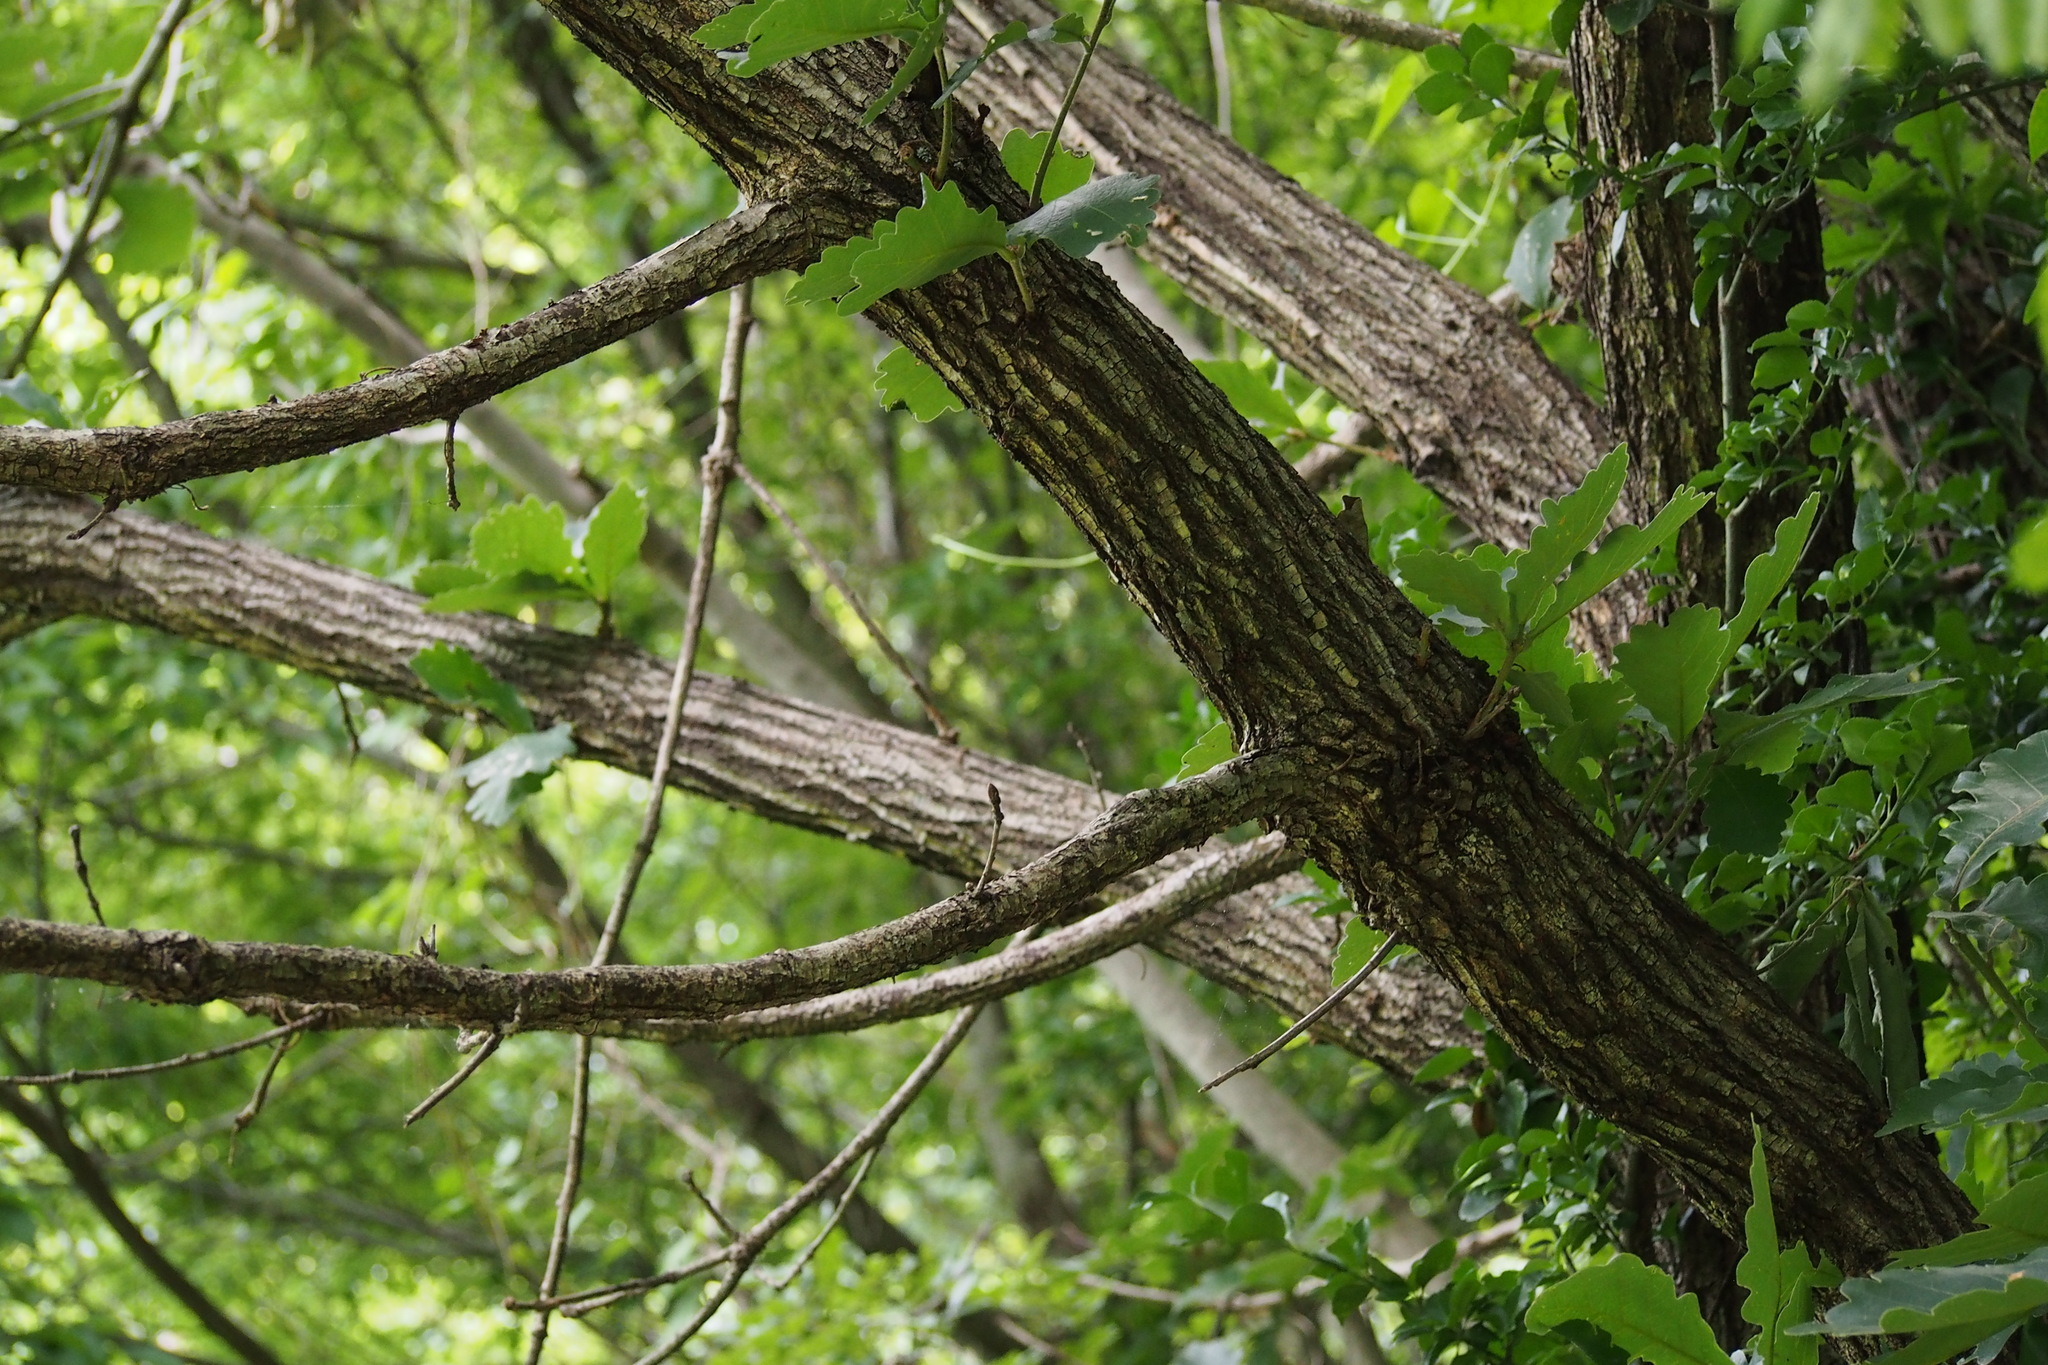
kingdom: Plantae
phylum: Tracheophyta
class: Magnoliopsida
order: Fagales
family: Fagaceae
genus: Quercus
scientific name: Quercus dentata
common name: Daimyo oak
